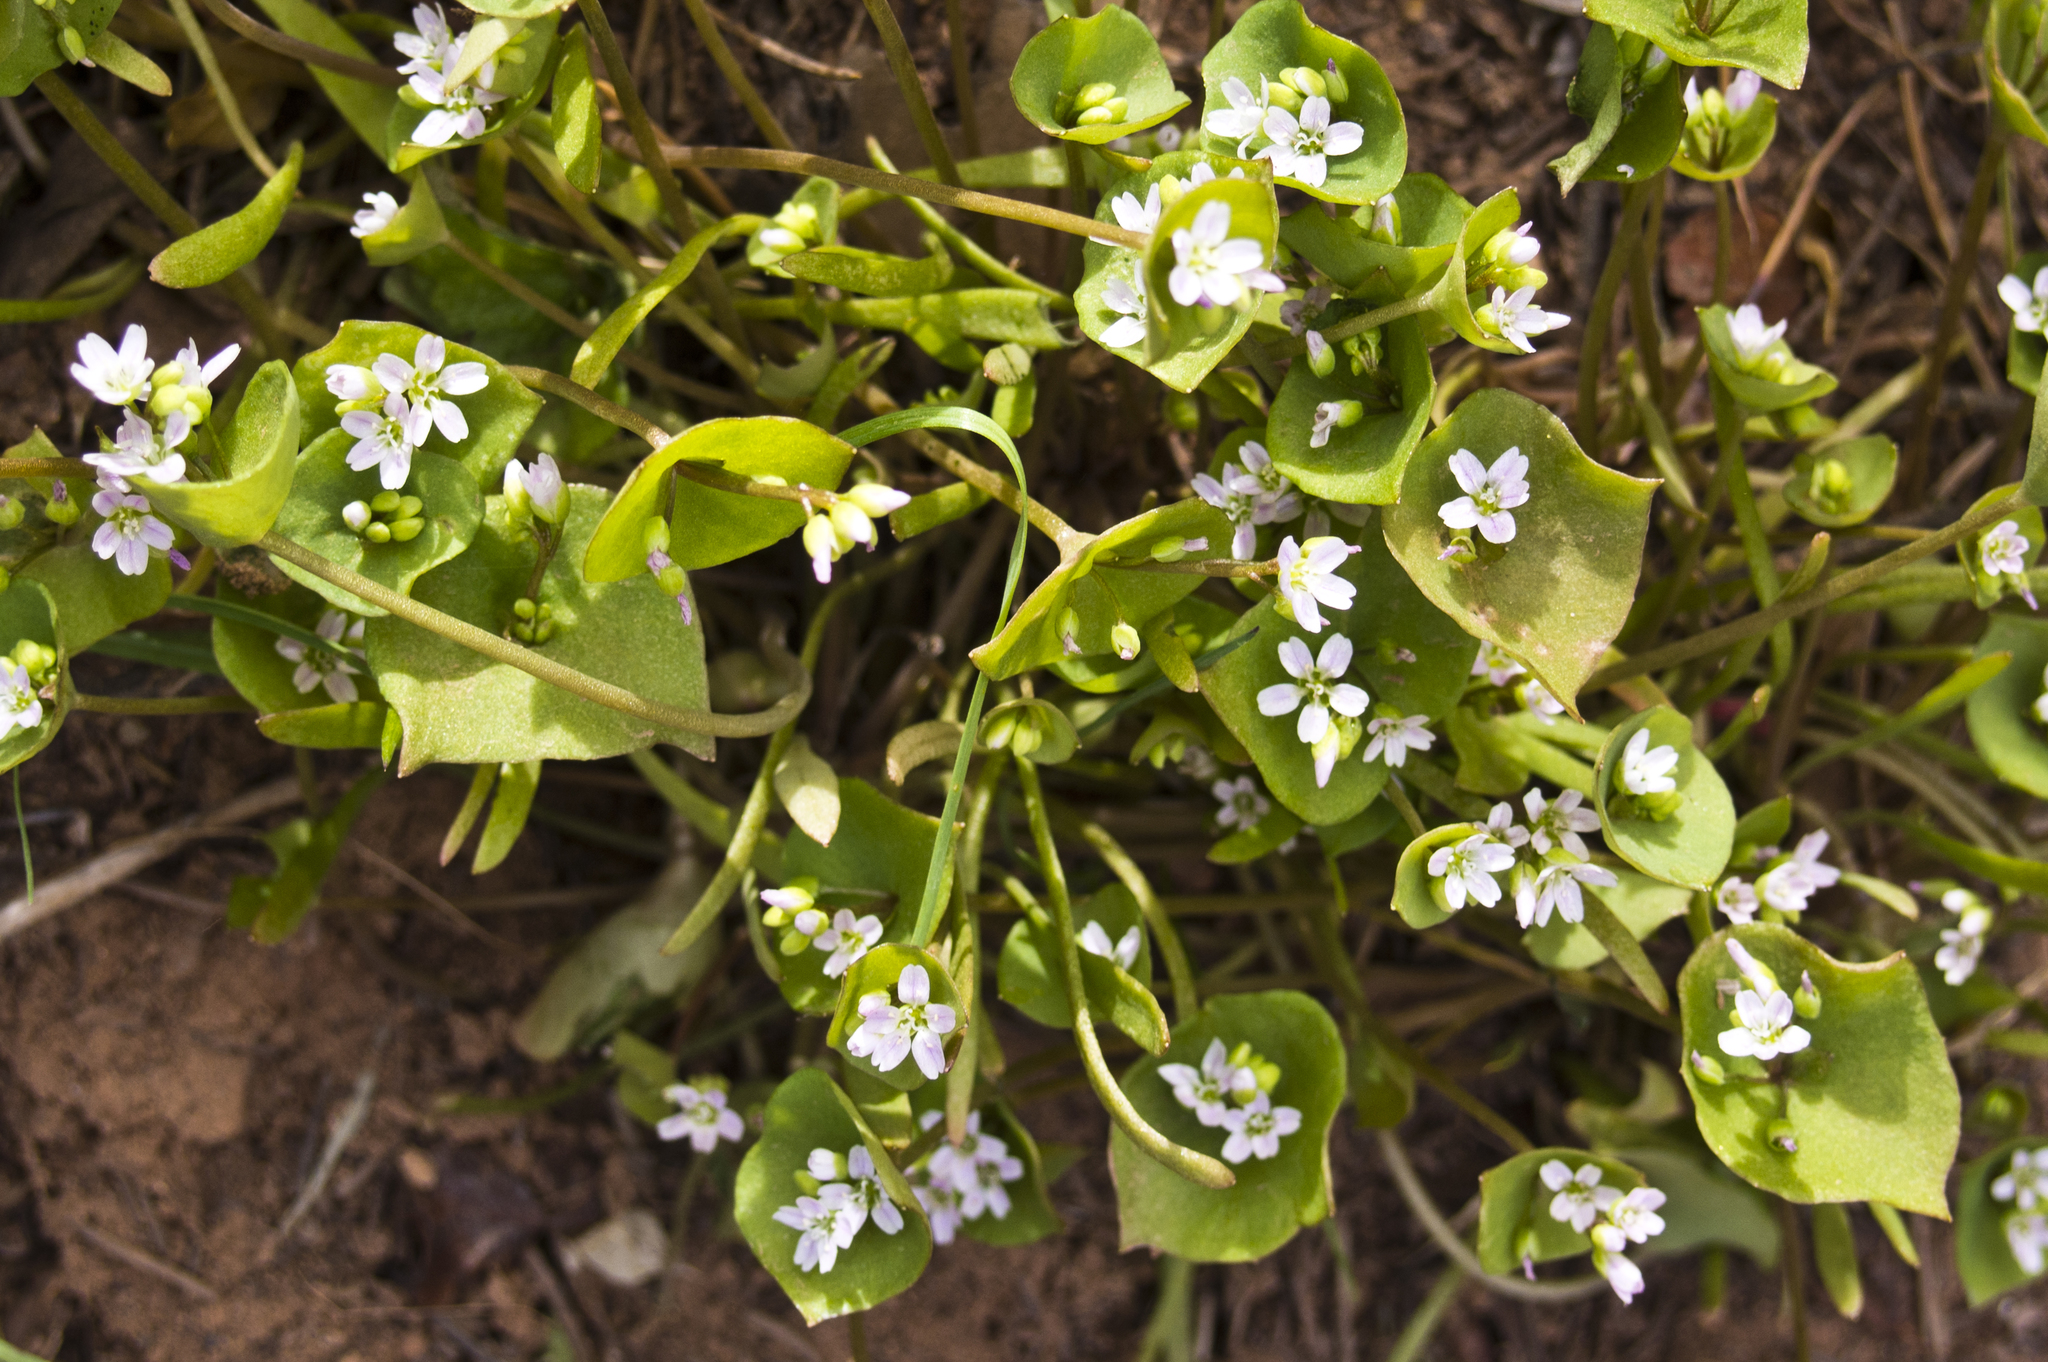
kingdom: Plantae
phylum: Tracheophyta
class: Magnoliopsida
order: Caryophyllales
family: Montiaceae
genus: Claytonia
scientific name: Claytonia parviflora
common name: Indian-lettuce
